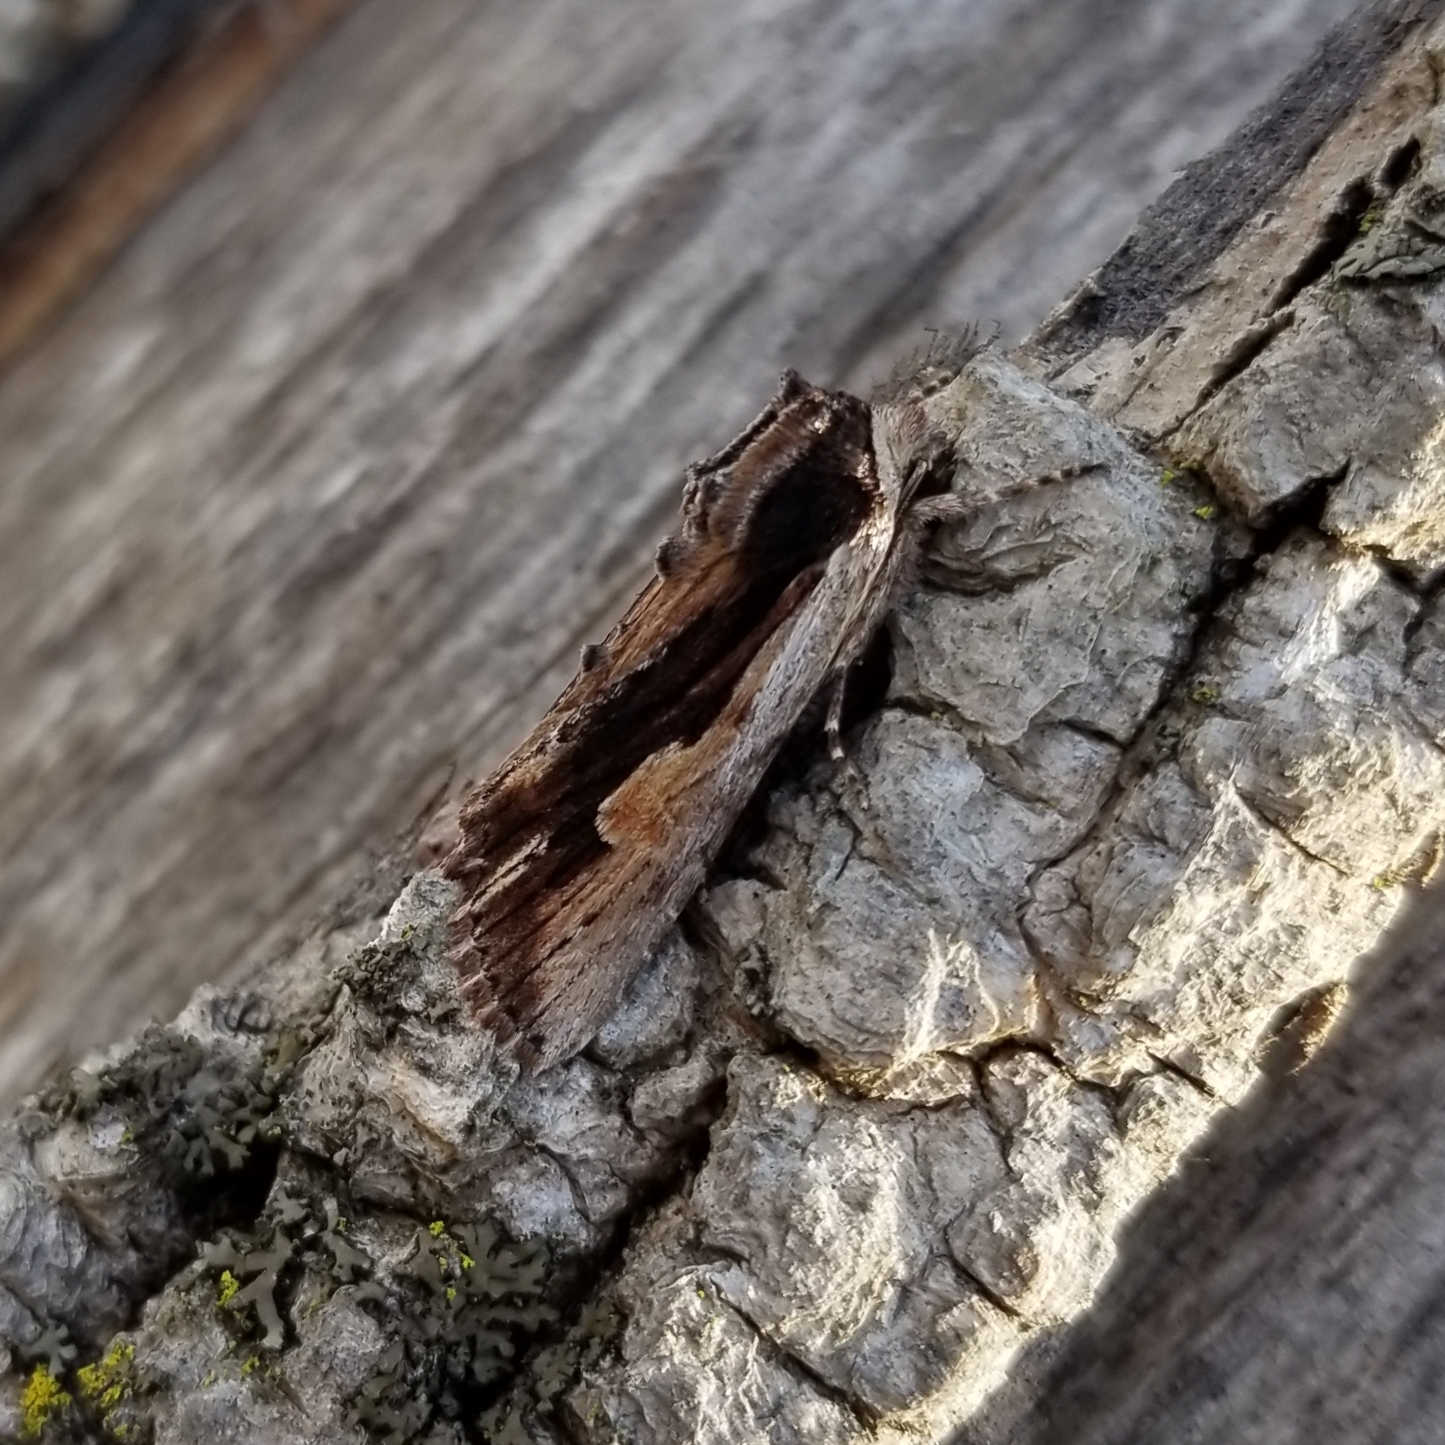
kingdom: Animalia
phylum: Arthropoda
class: Insecta
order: Lepidoptera
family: Noctuidae
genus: Achatia
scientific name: Achatia evicta
